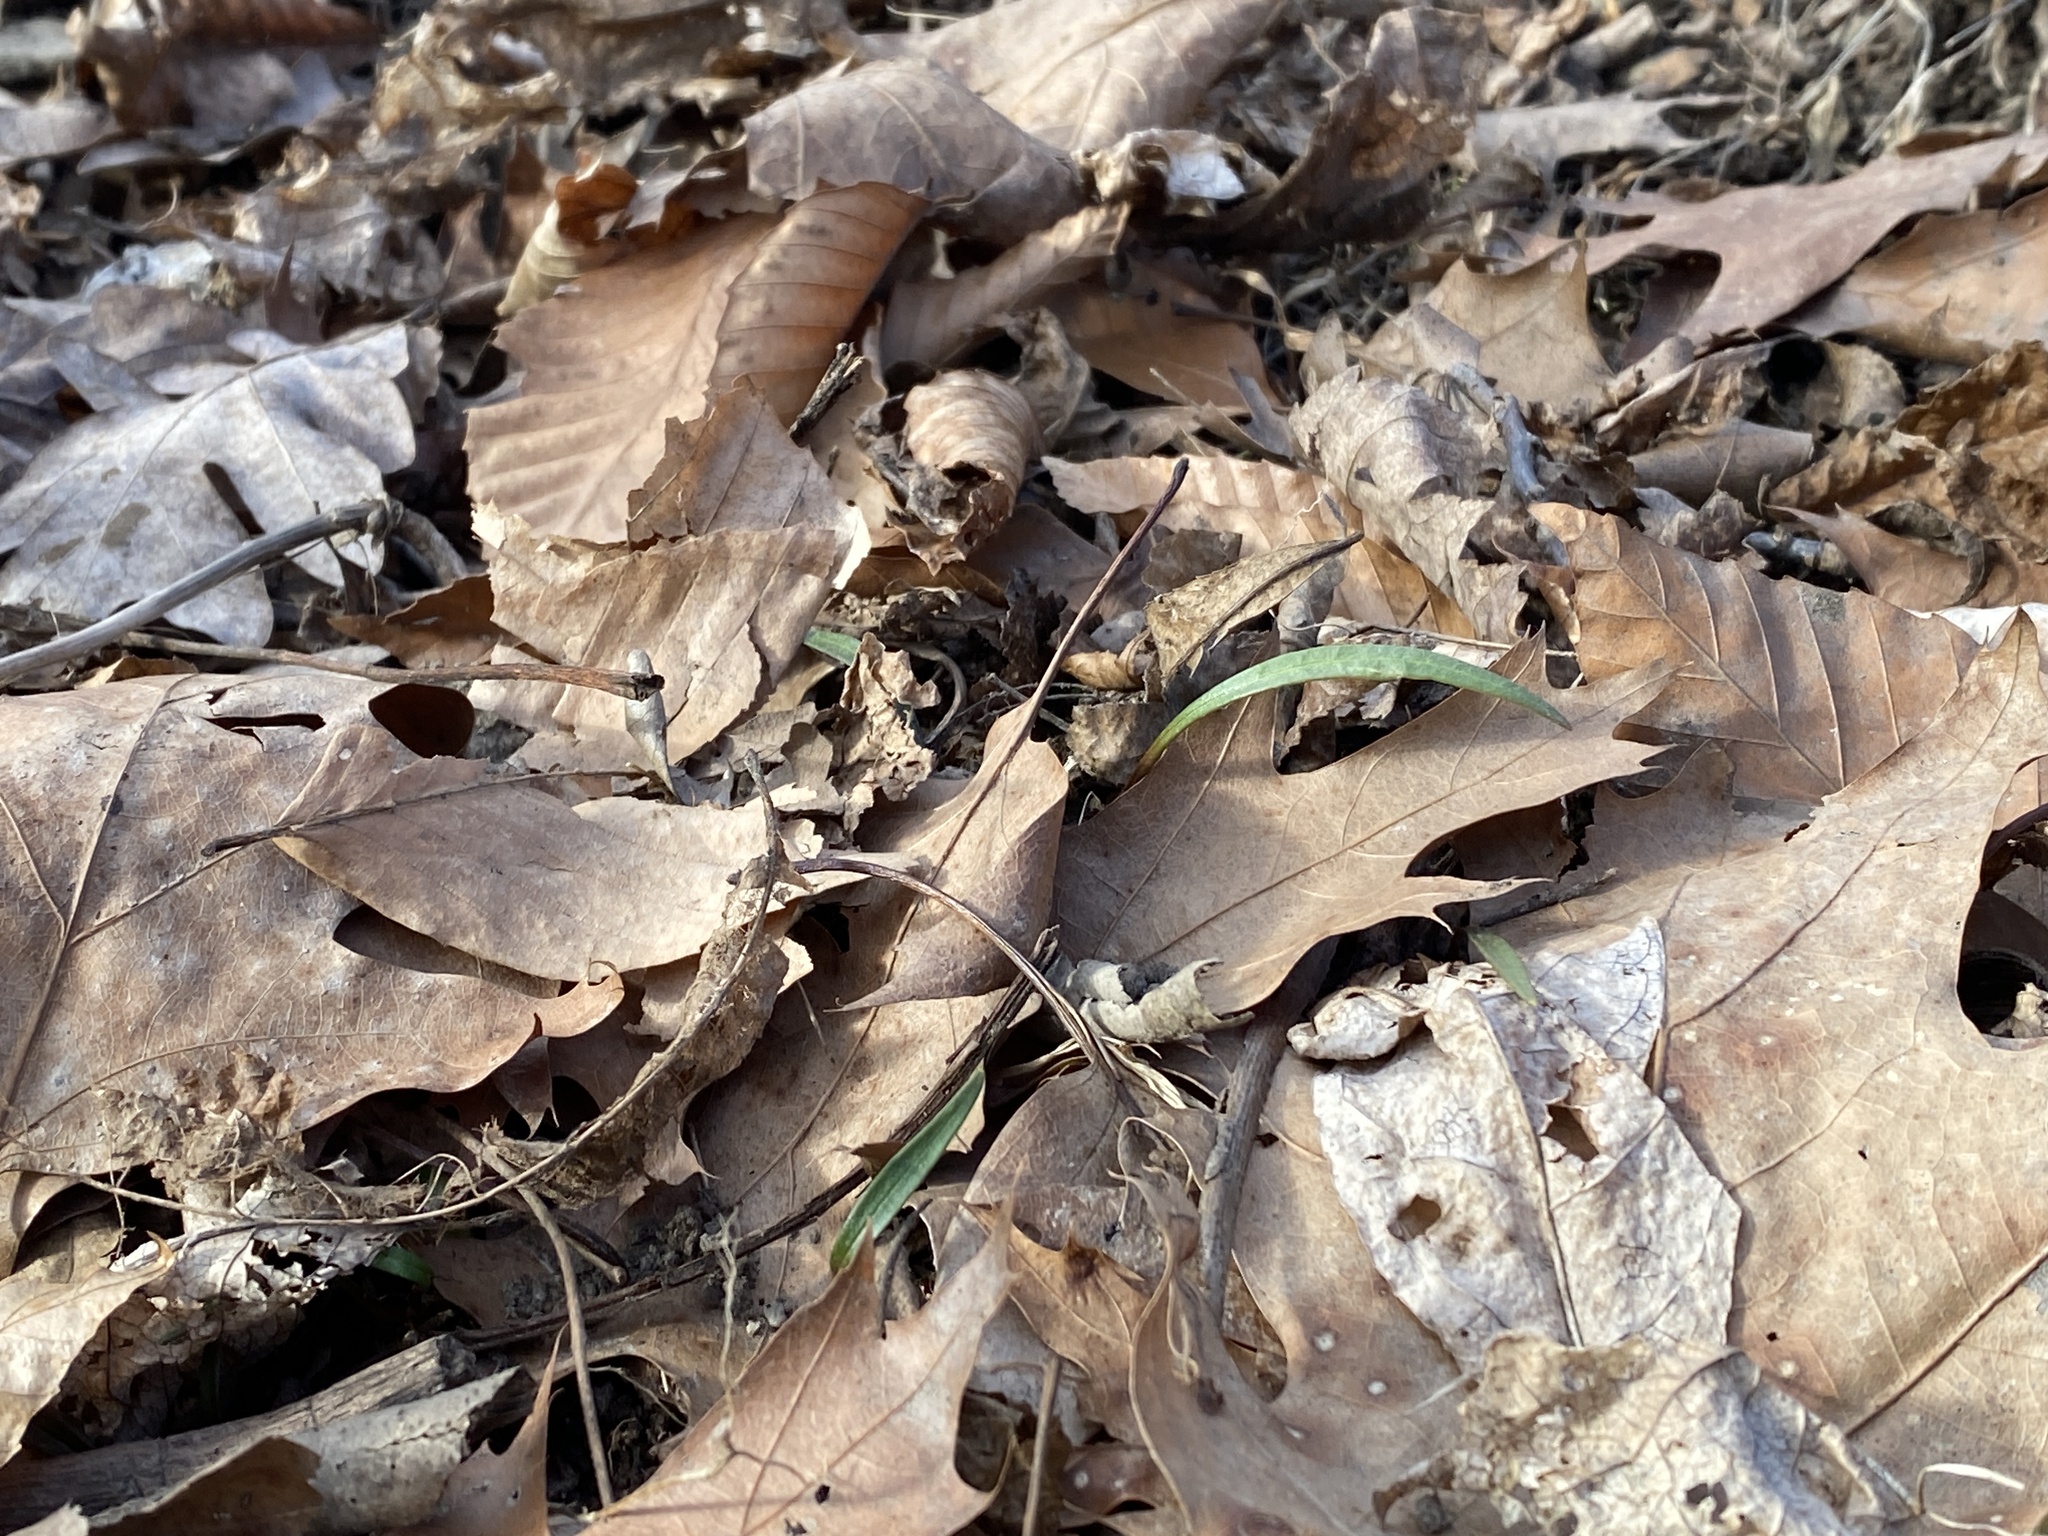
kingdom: Plantae
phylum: Tracheophyta
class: Magnoliopsida
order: Caryophyllales
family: Montiaceae
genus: Claytonia
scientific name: Claytonia virginica
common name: Virginia springbeauty
